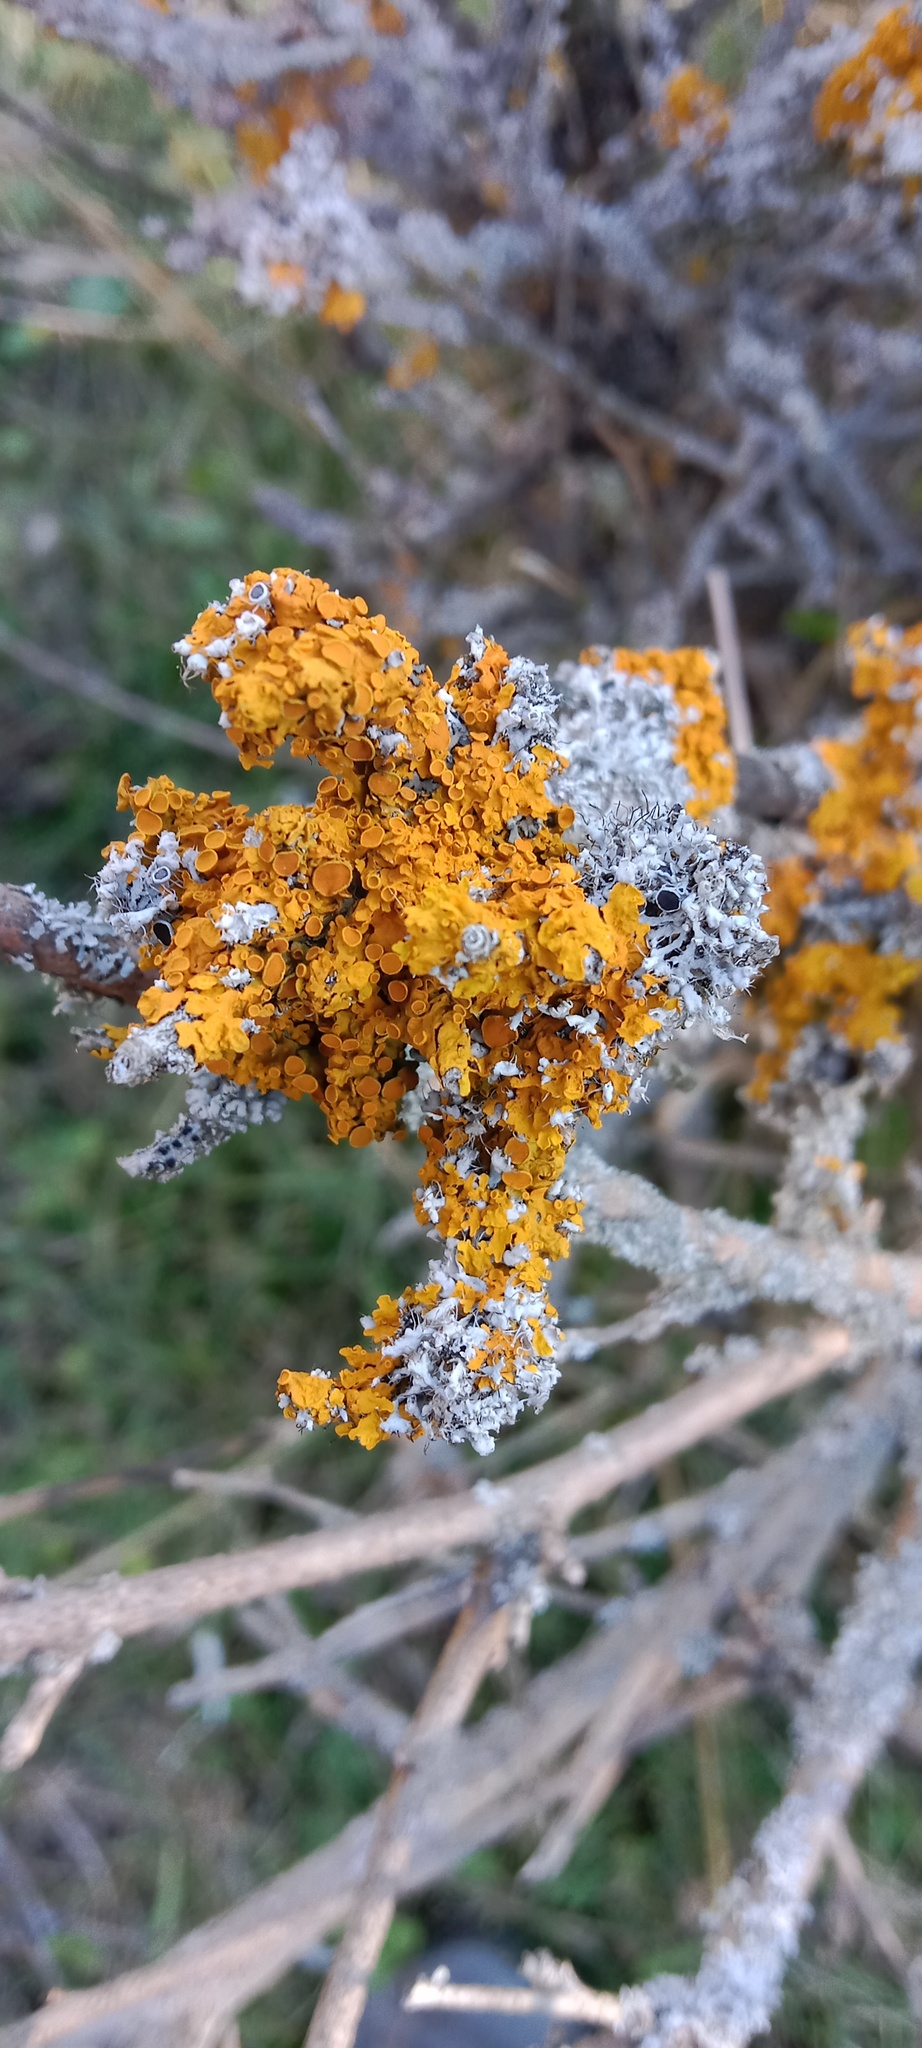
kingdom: Fungi
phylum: Ascomycota
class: Lecanoromycetes
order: Teloschistales
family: Teloschistaceae
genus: Xanthoria
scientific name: Xanthoria parietina
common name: Common orange lichen
